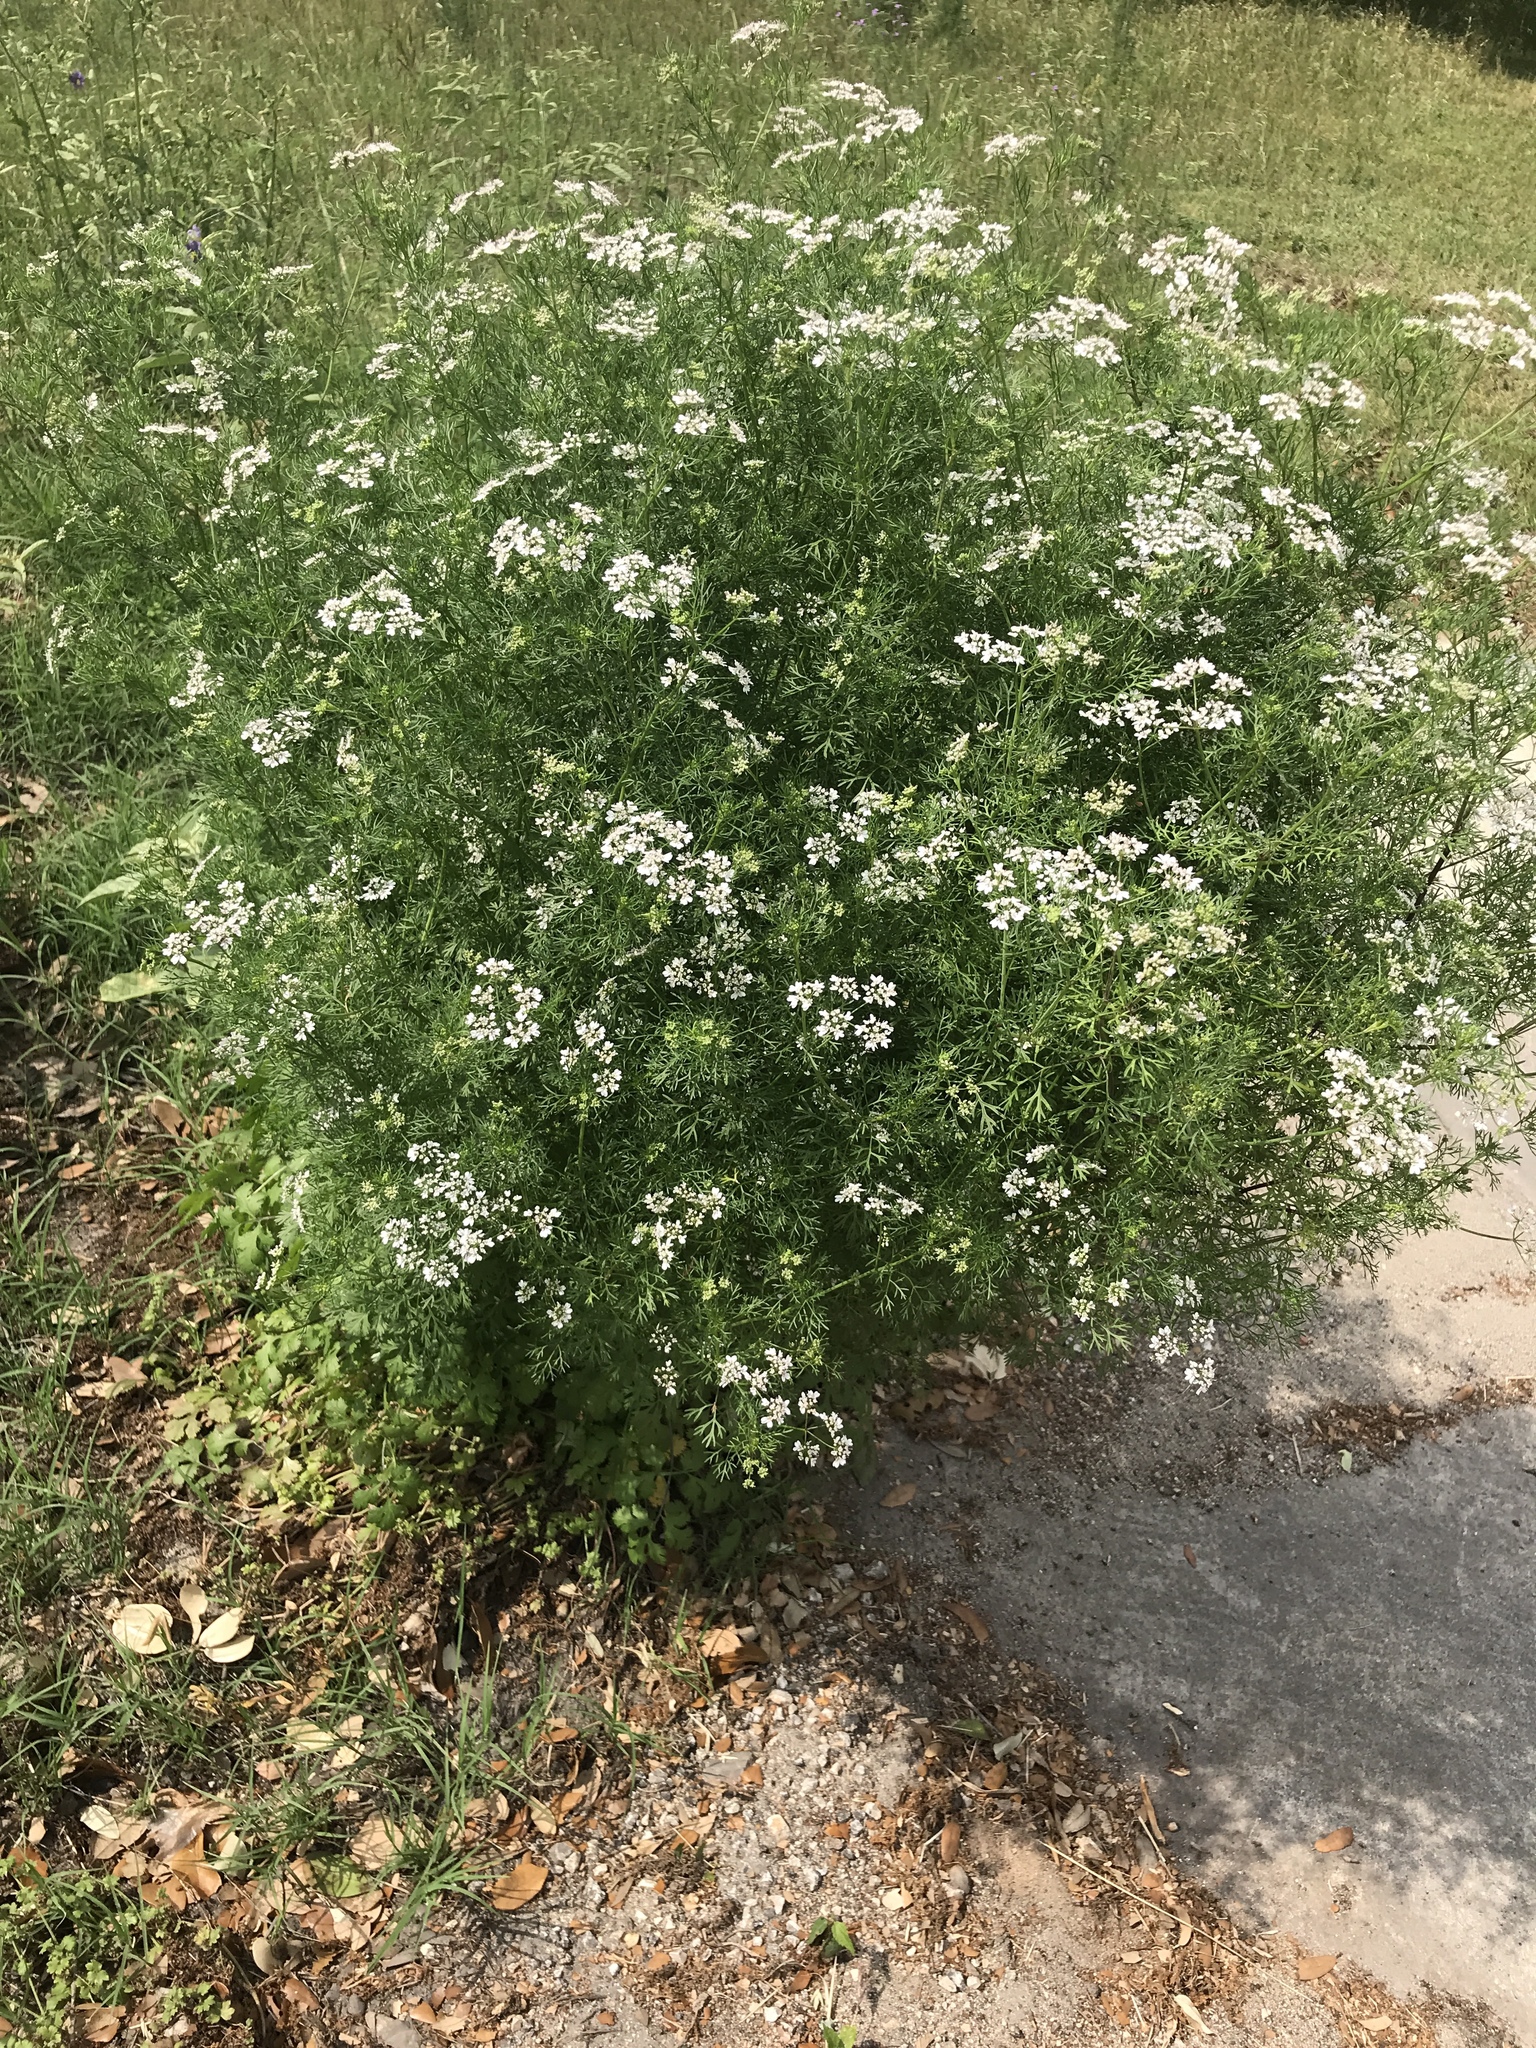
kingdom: Plantae
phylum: Tracheophyta
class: Magnoliopsida
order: Apiales
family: Apiaceae
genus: Torilis
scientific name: Torilis arvensis
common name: Spreading hedge-parsley
